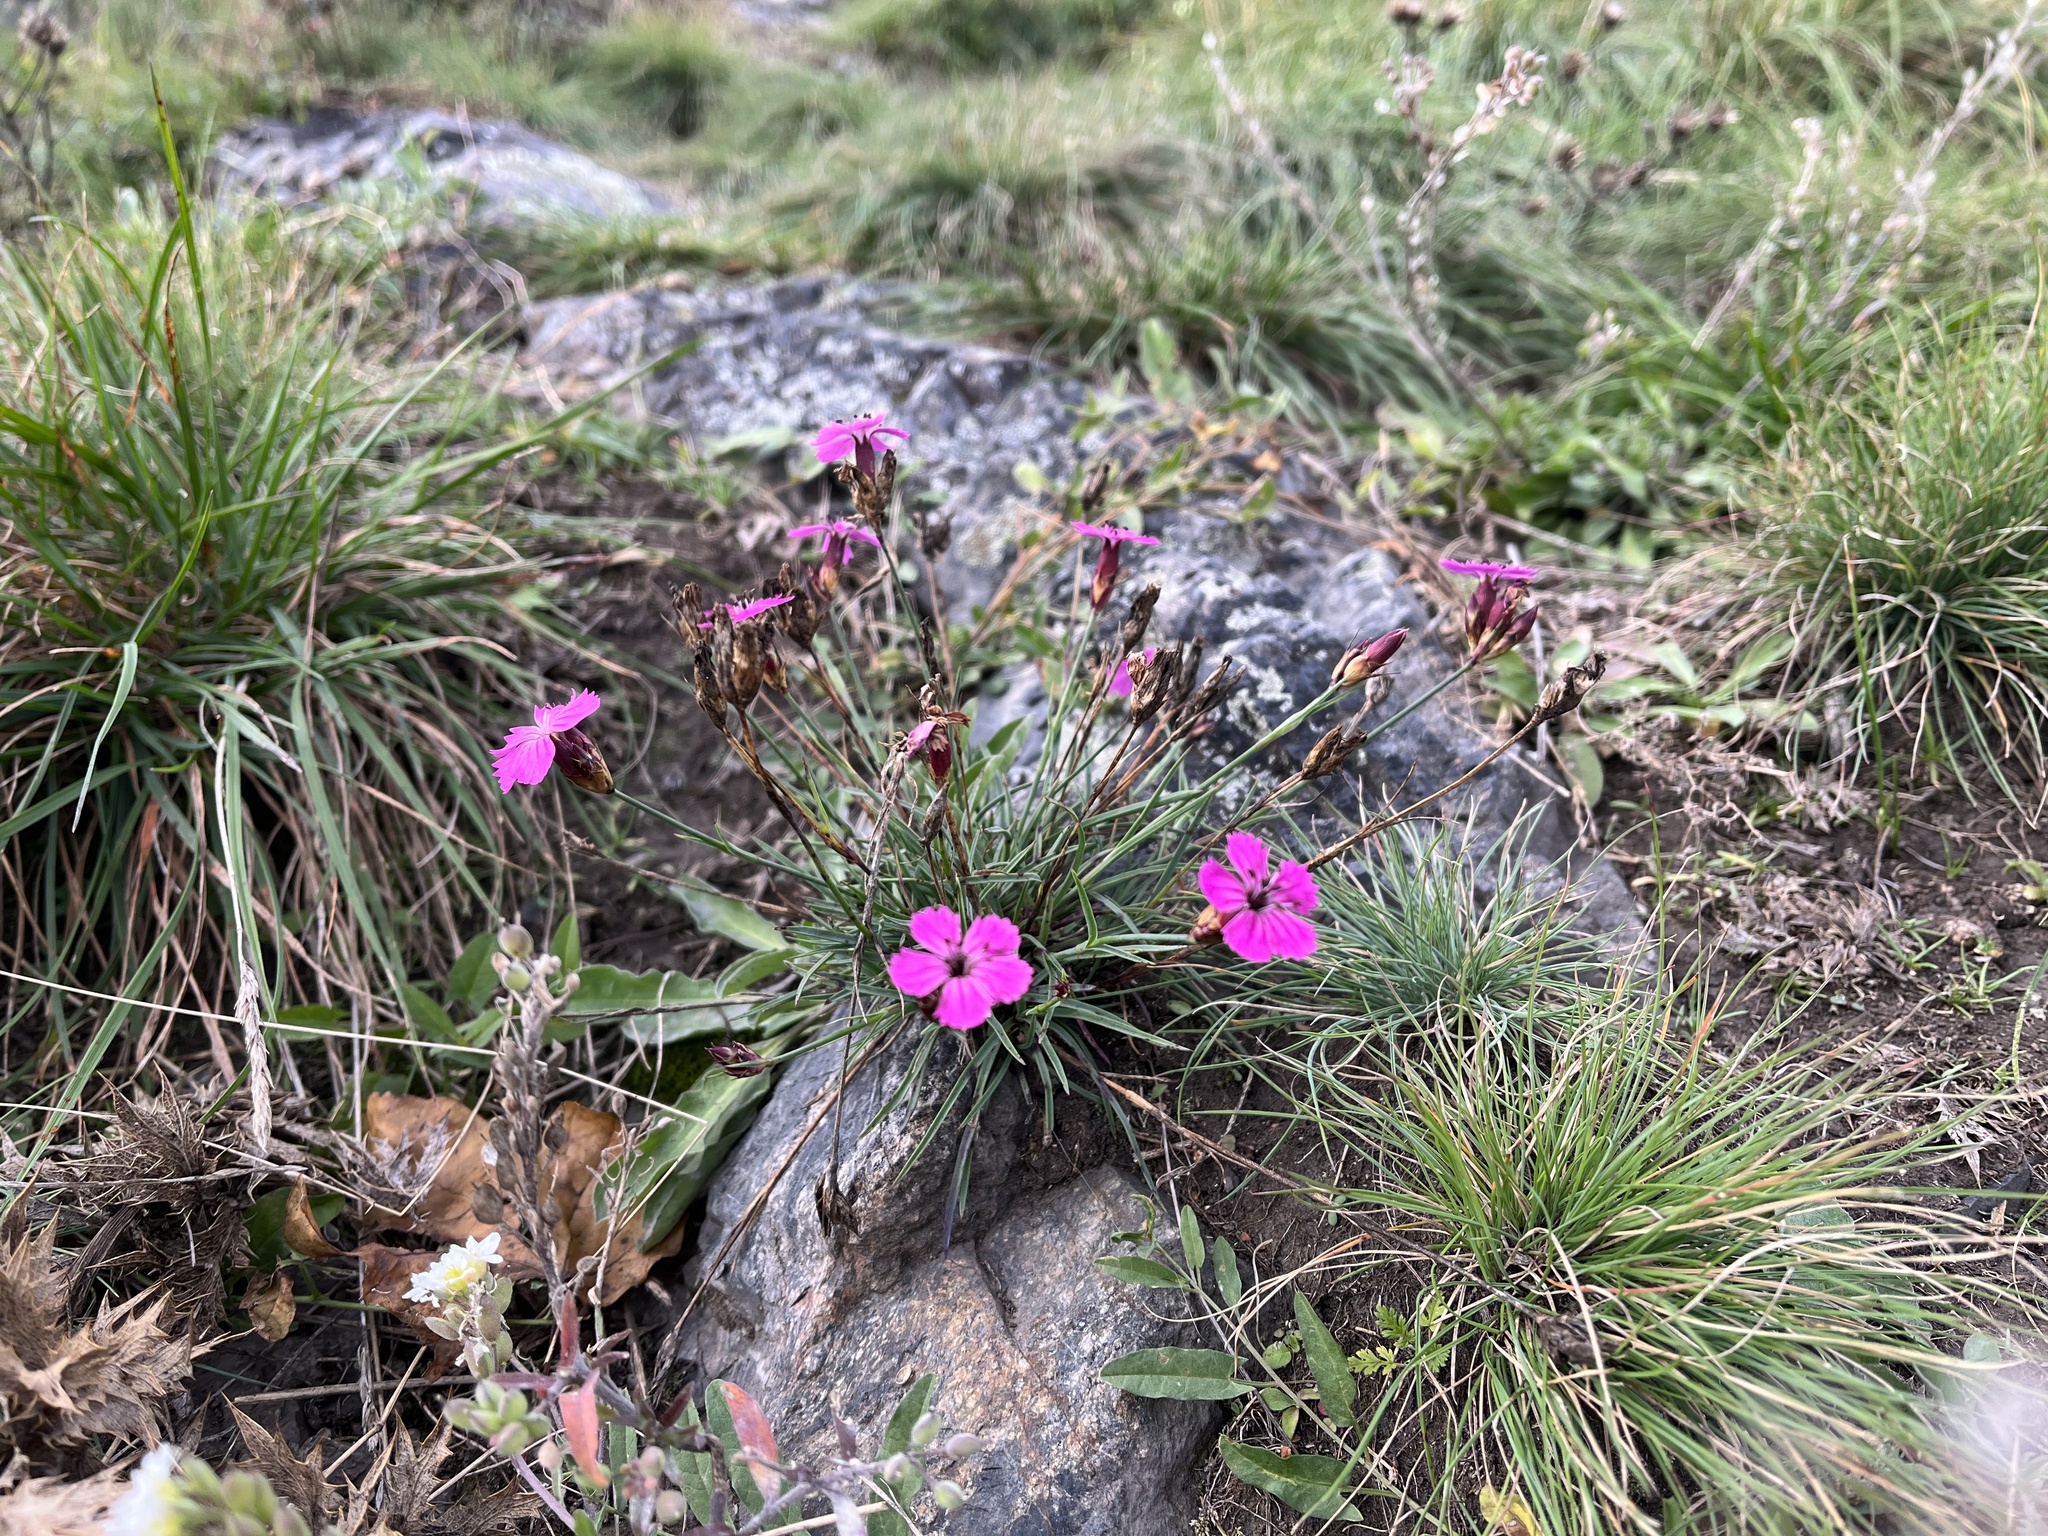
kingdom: Plantae
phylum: Tracheophyta
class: Magnoliopsida
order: Caryophyllales
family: Caryophyllaceae
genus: Dianthus
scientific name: Dianthus carthusianorum
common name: Carthusian pink
